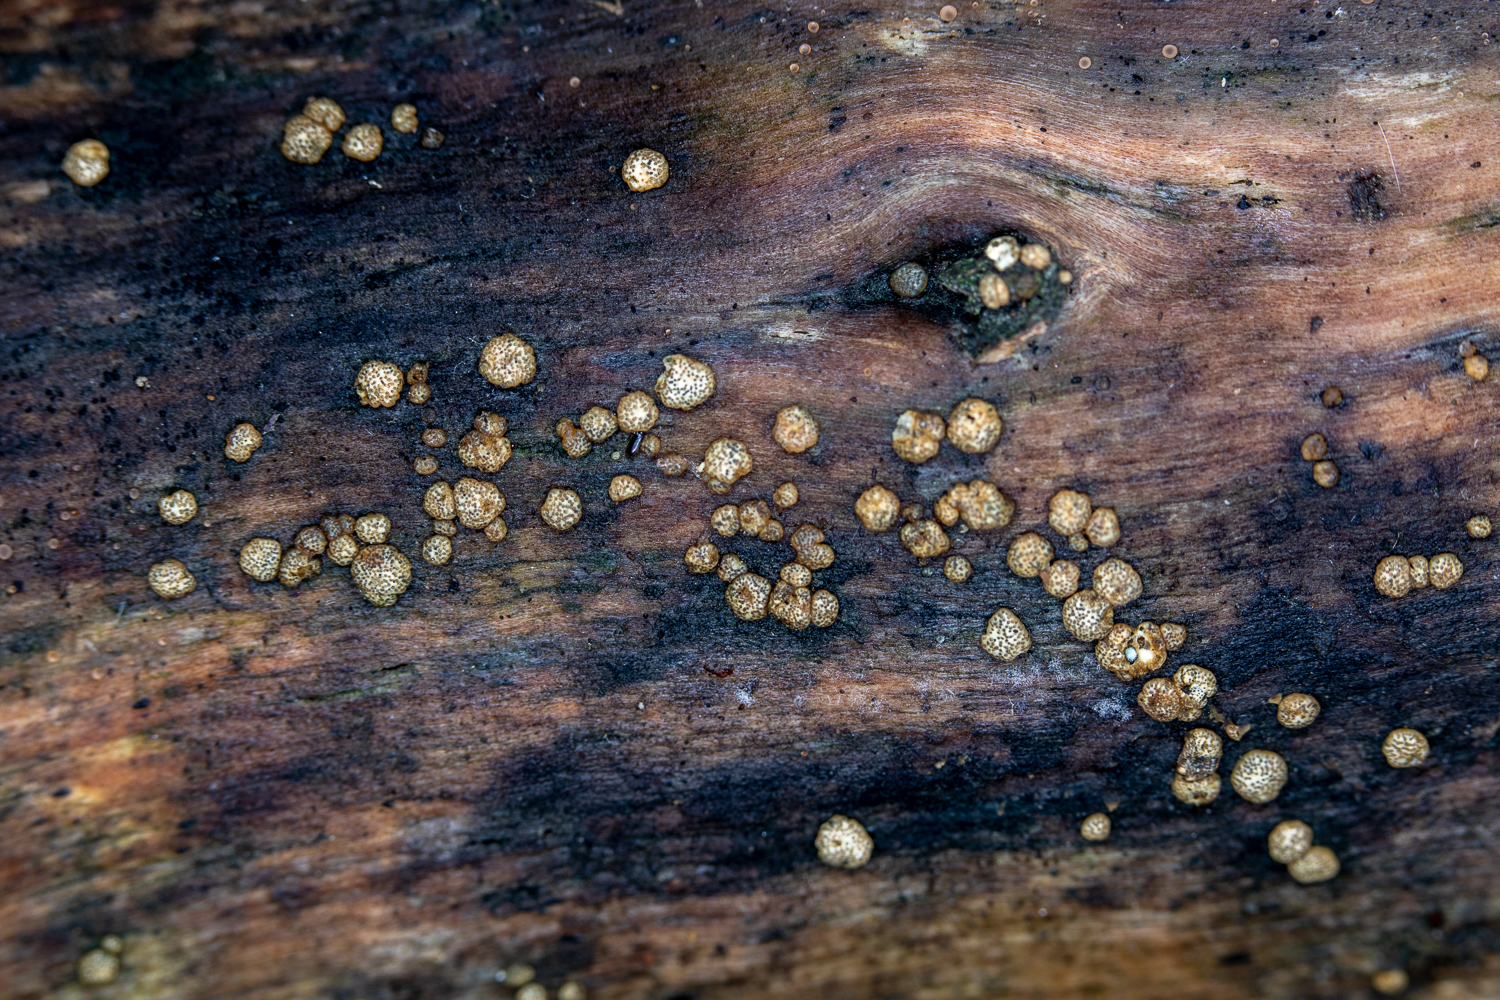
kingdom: Fungi
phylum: Ascomycota
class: Sordariomycetes
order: Hypocreales
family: Hypocreaceae
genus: Trichoderma
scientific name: Trichoderma gelatinosum
